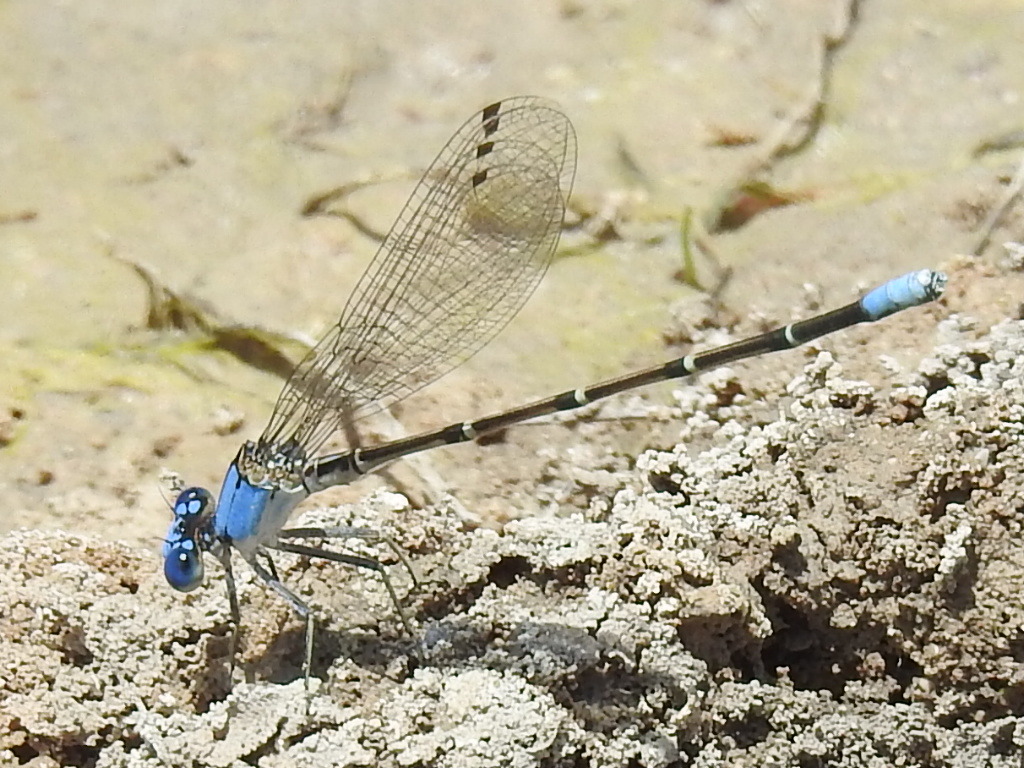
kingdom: Animalia
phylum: Arthropoda
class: Insecta
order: Odonata
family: Coenagrionidae
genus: Argia
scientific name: Argia apicalis
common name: Blue-fronted dancer
